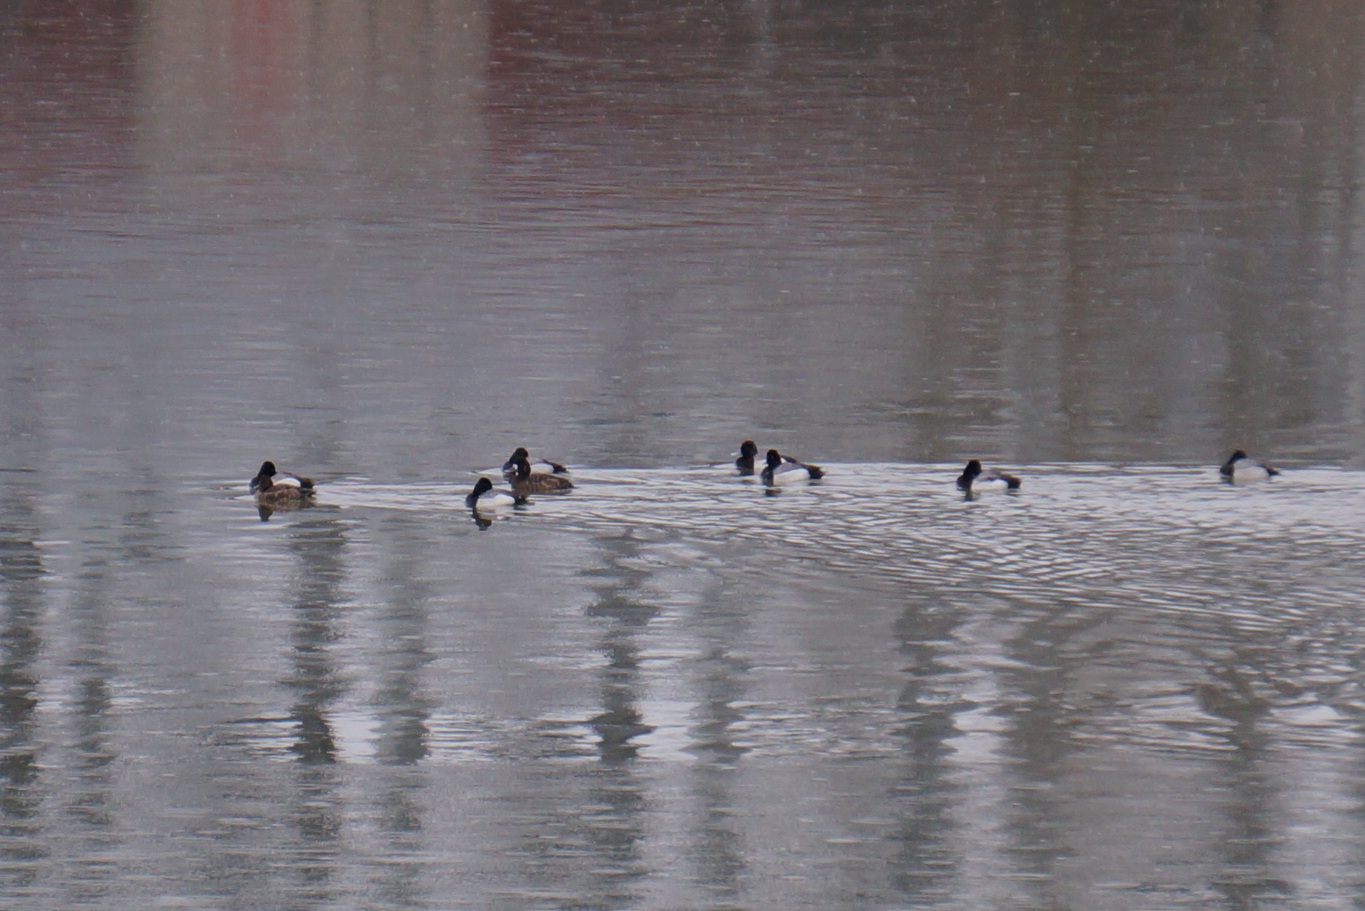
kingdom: Animalia
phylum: Chordata
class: Aves
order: Anseriformes
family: Anatidae
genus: Aythya
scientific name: Aythya affinis
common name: Lesser scaup
